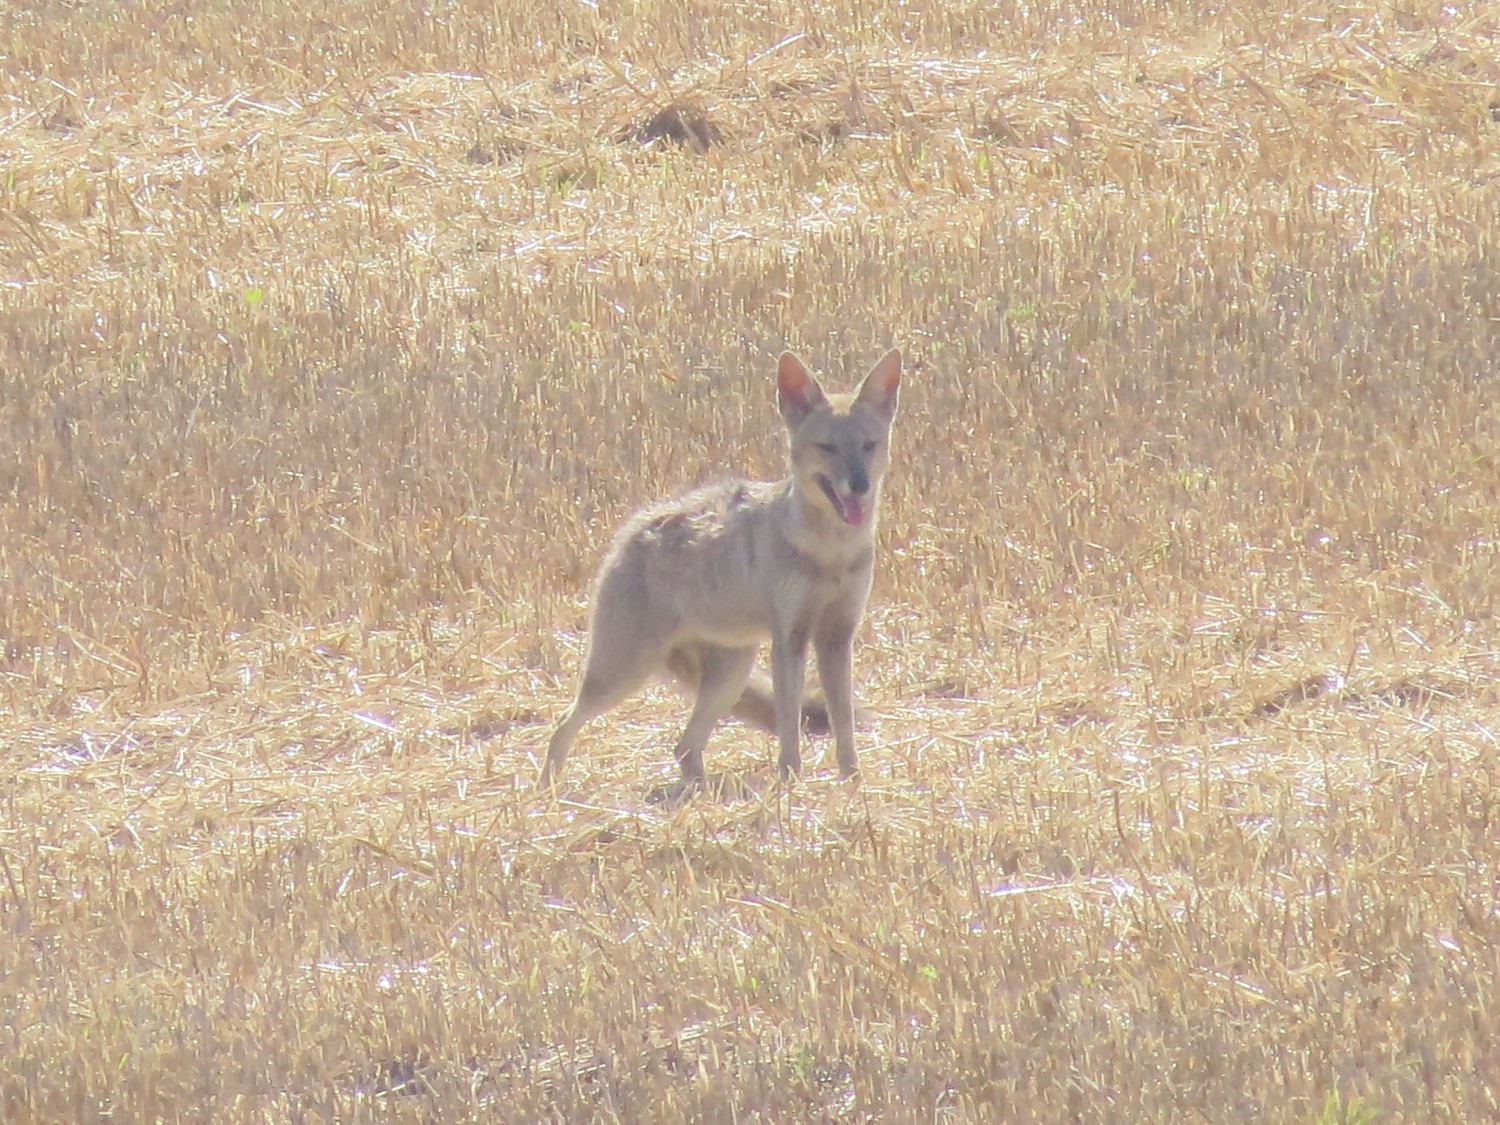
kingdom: Animalia
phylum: Chordata
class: Mammalia
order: Carnivora
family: Canidae
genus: Lycalopex
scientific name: Lycalopex gymnocercus
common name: Pampas fox
